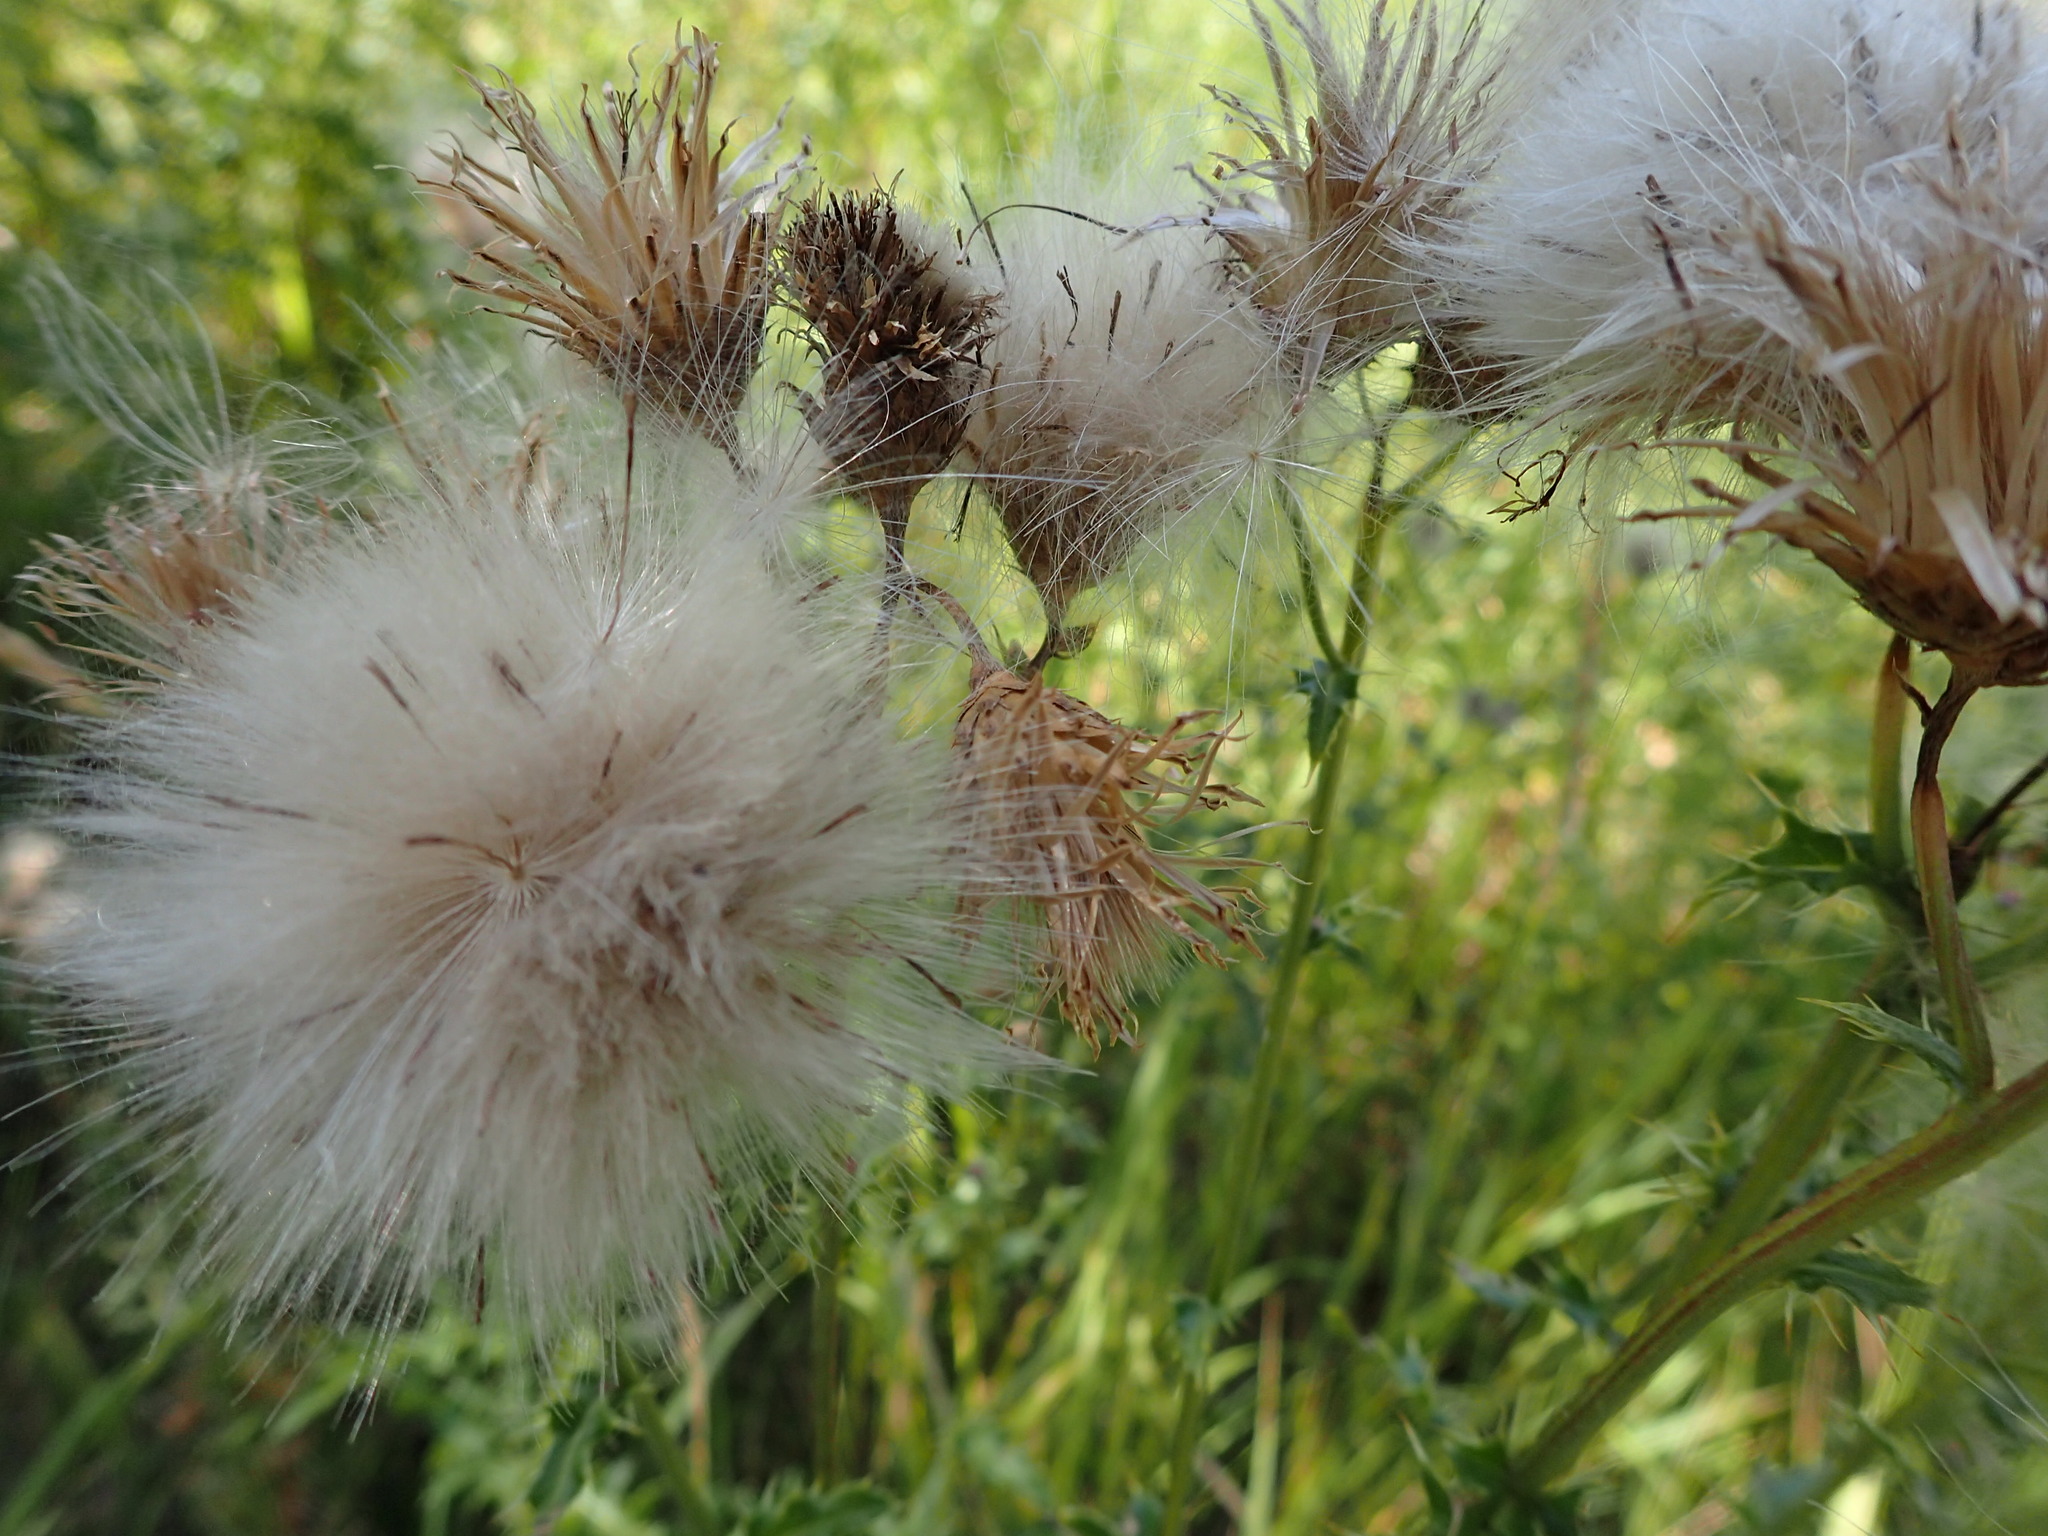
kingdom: Plantae
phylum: Tracheophyta
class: Magnoliopsida
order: Asterales
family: Asteraceae
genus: Cirsium
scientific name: Cirsium arvense
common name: Creeping thistle
